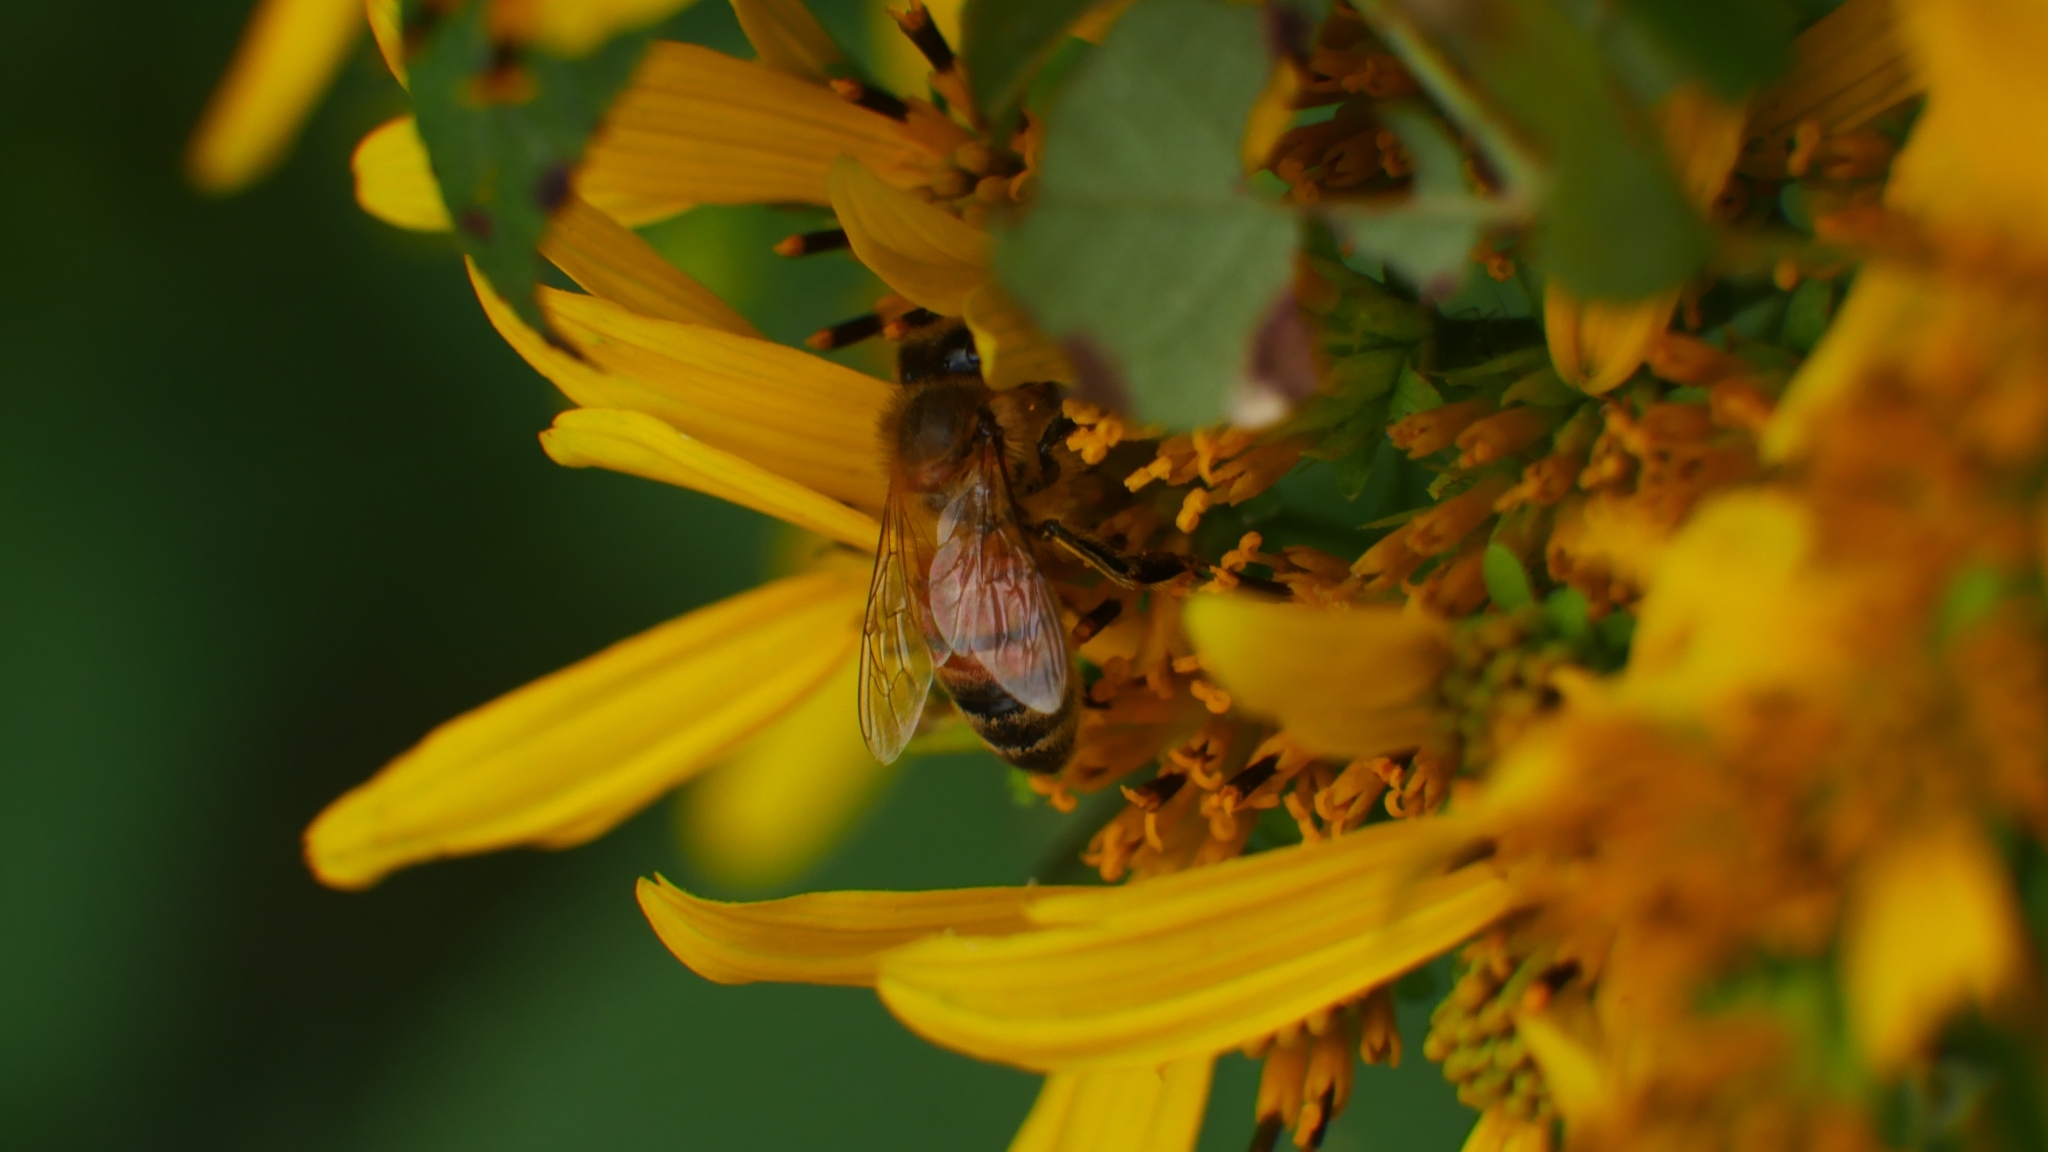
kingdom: Animalia
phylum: Arthropoda
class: Insecta
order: Hymenoptera
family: Apidae
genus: Apis
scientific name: Apis mellifera
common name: Honey bee
